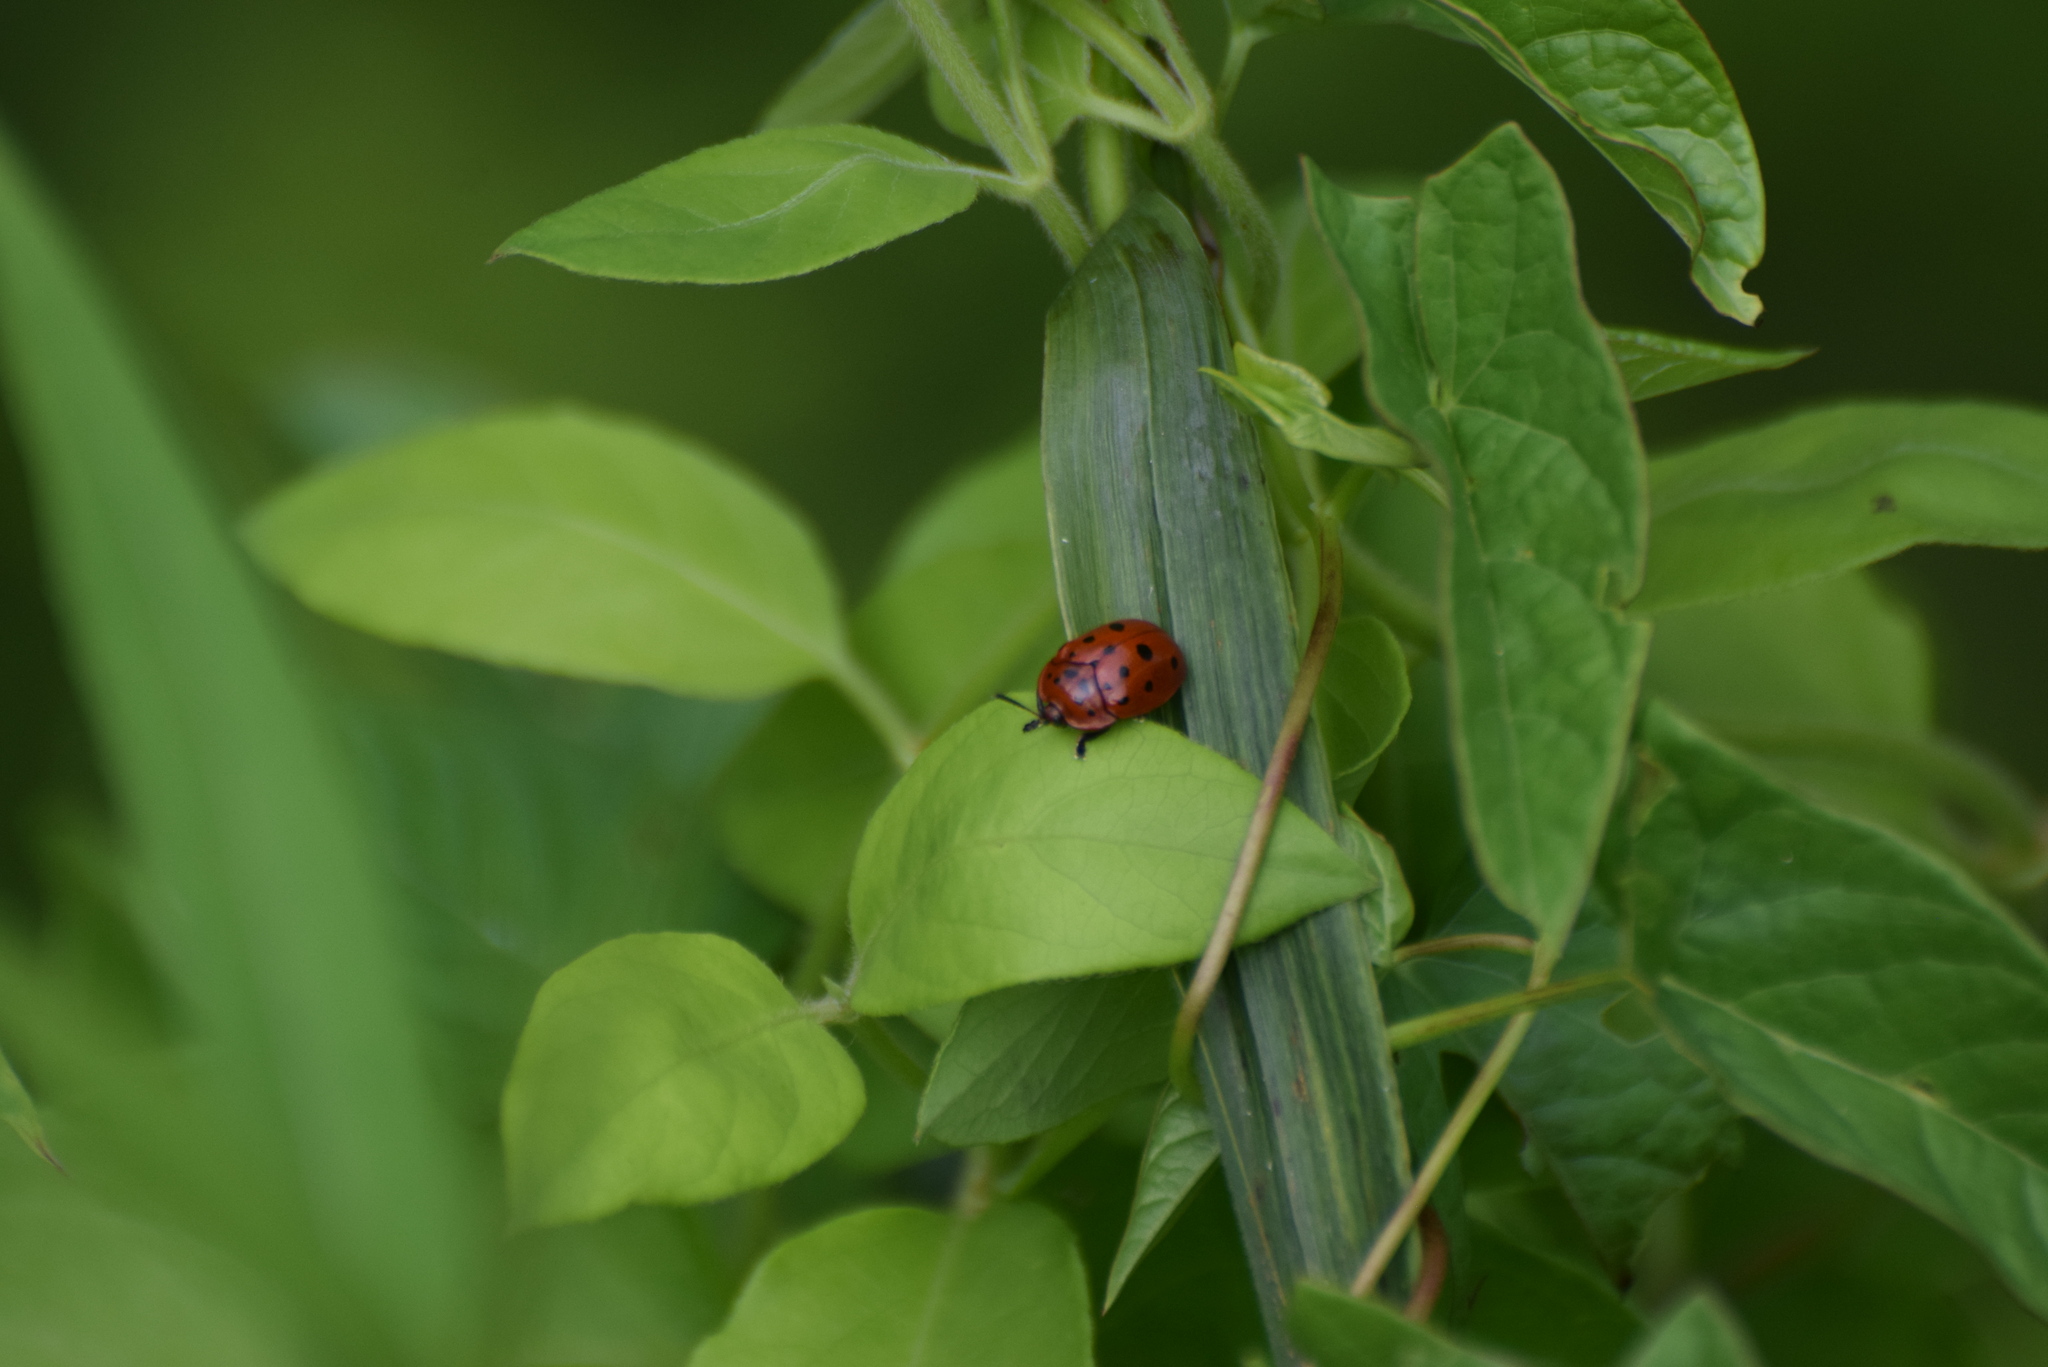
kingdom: Animalia
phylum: Arthropoda
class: Insecta
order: Coleoptera
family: Chrysomelidae
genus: Chelymorpha
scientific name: Chelymorpha cassidea
